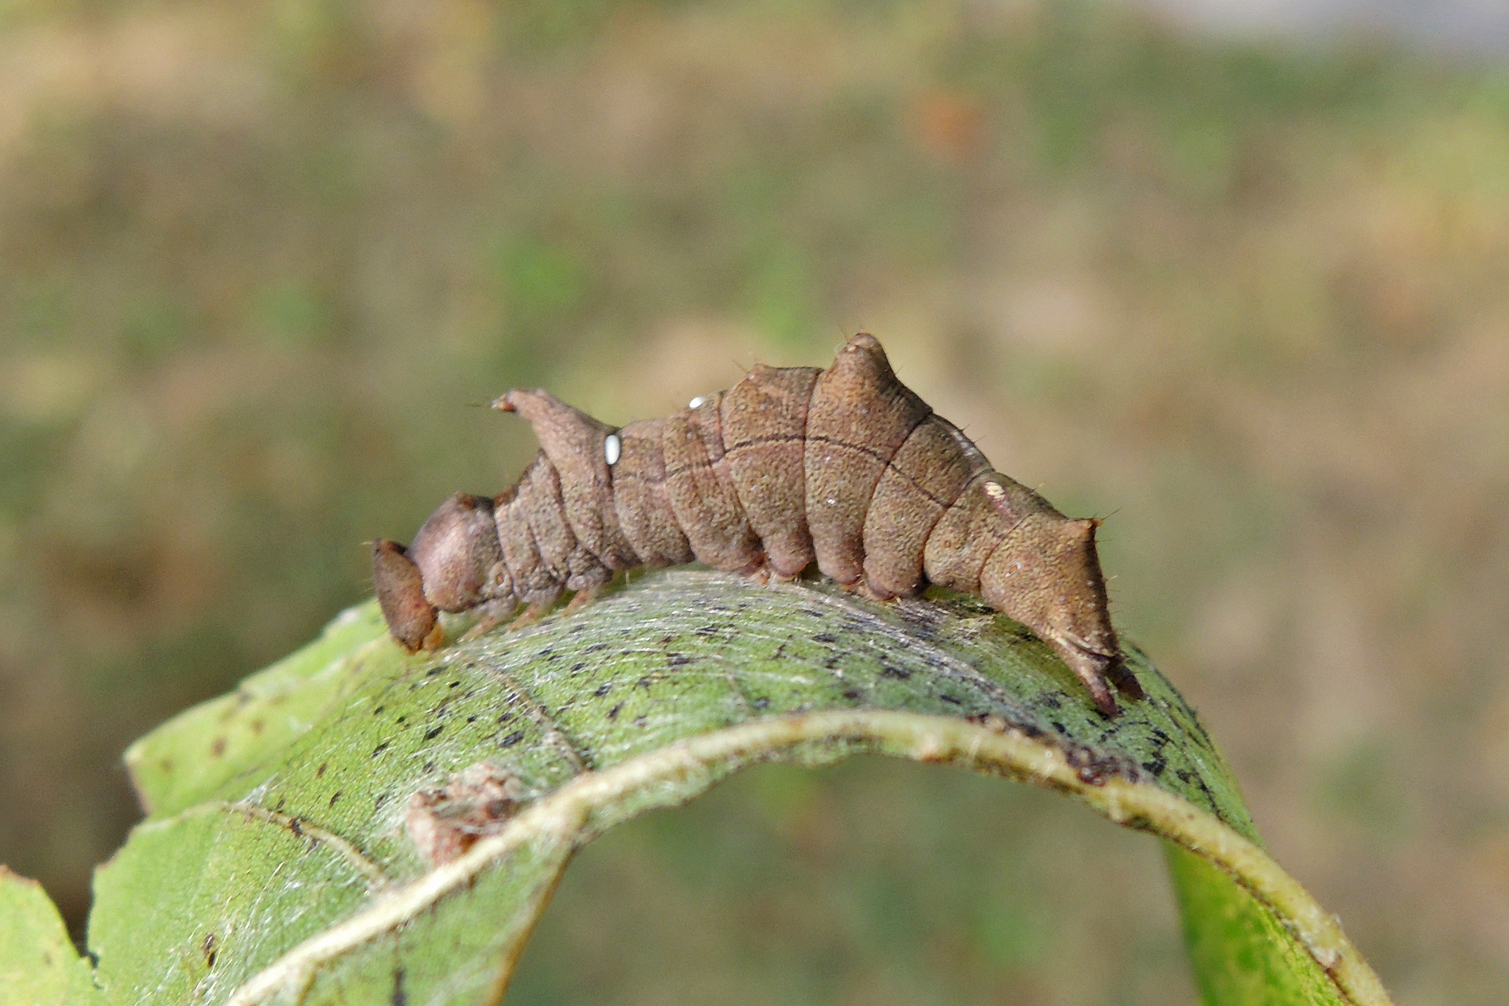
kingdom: Animalia
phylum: Arthropoda
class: Insecta
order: Lepidoptera
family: Notodontidae
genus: Schizura
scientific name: Schizura
